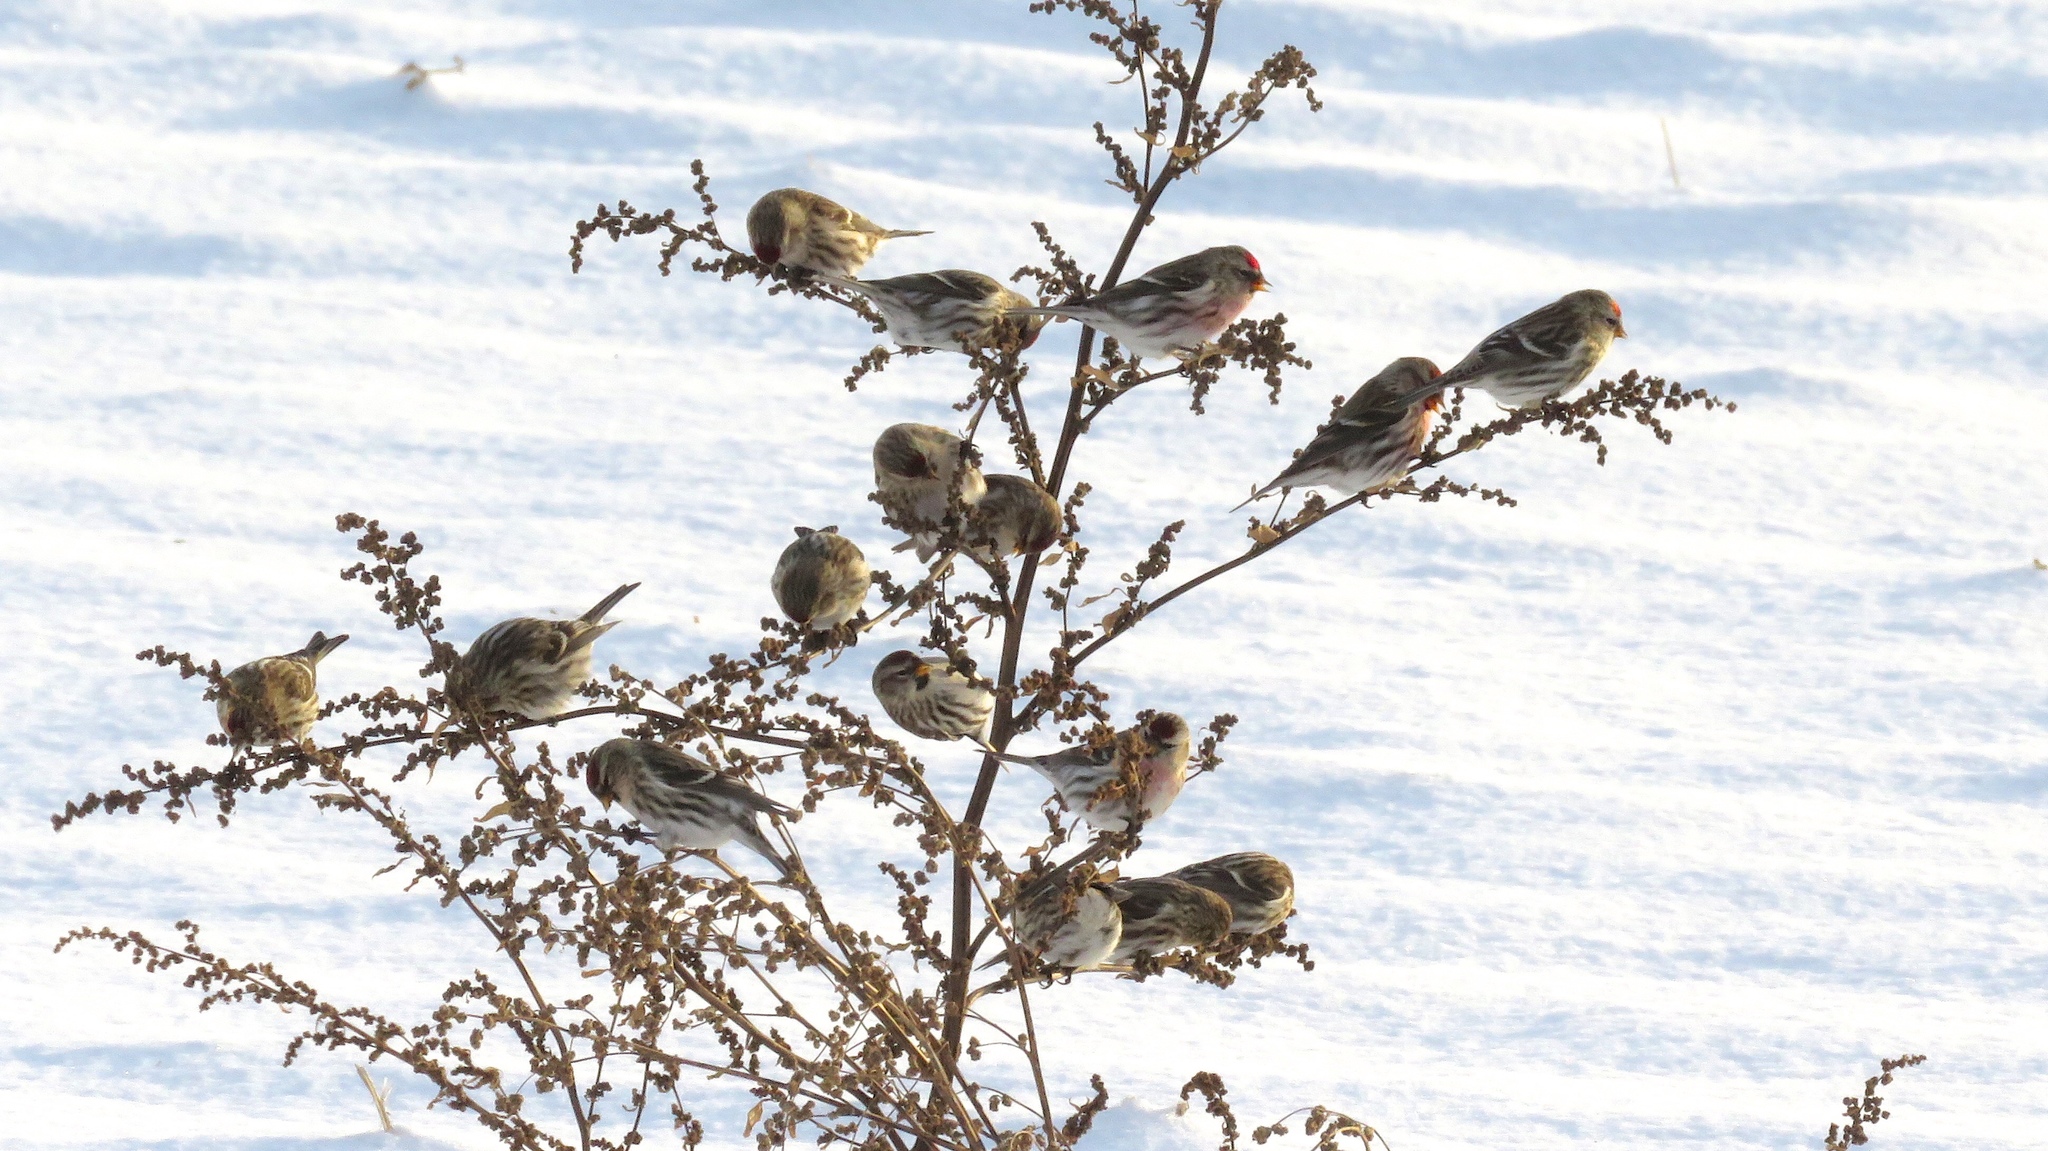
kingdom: Animalia
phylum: Chordata
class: Aves
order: Passeriformes
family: Fringillidae
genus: Acanthis
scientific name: Acanthis flammea
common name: Common redpoll
